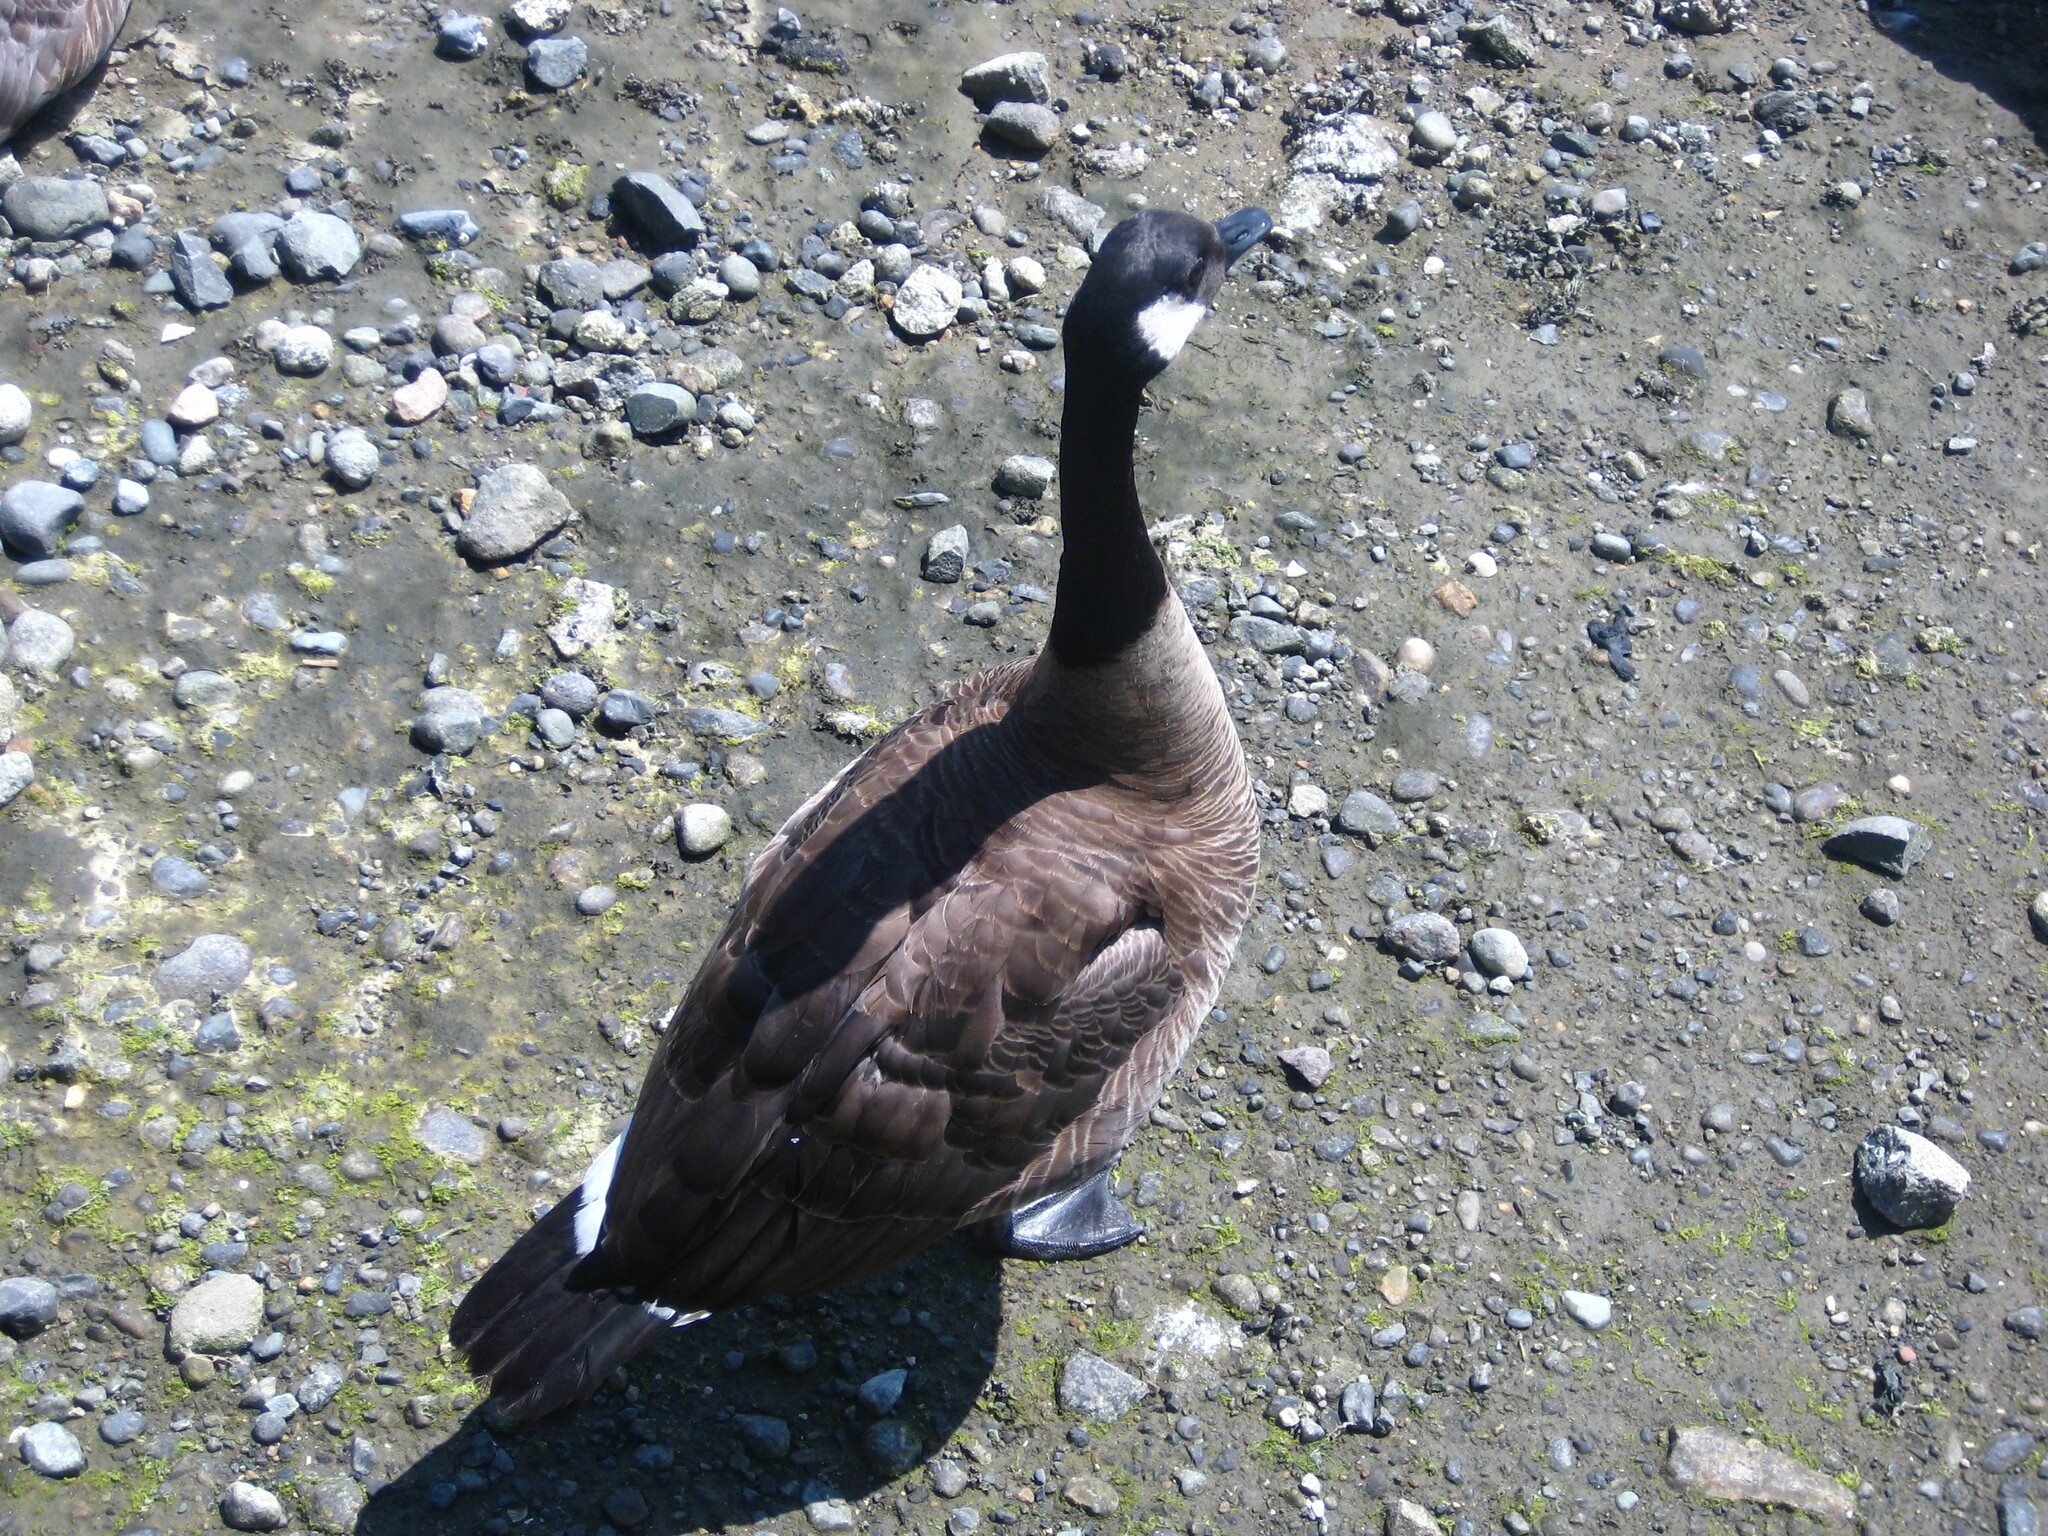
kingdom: Animalia
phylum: Chordata
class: Aves
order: Anseriformes
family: Anatidae
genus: Branta
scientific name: Branta canadensis
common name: Canada goose
